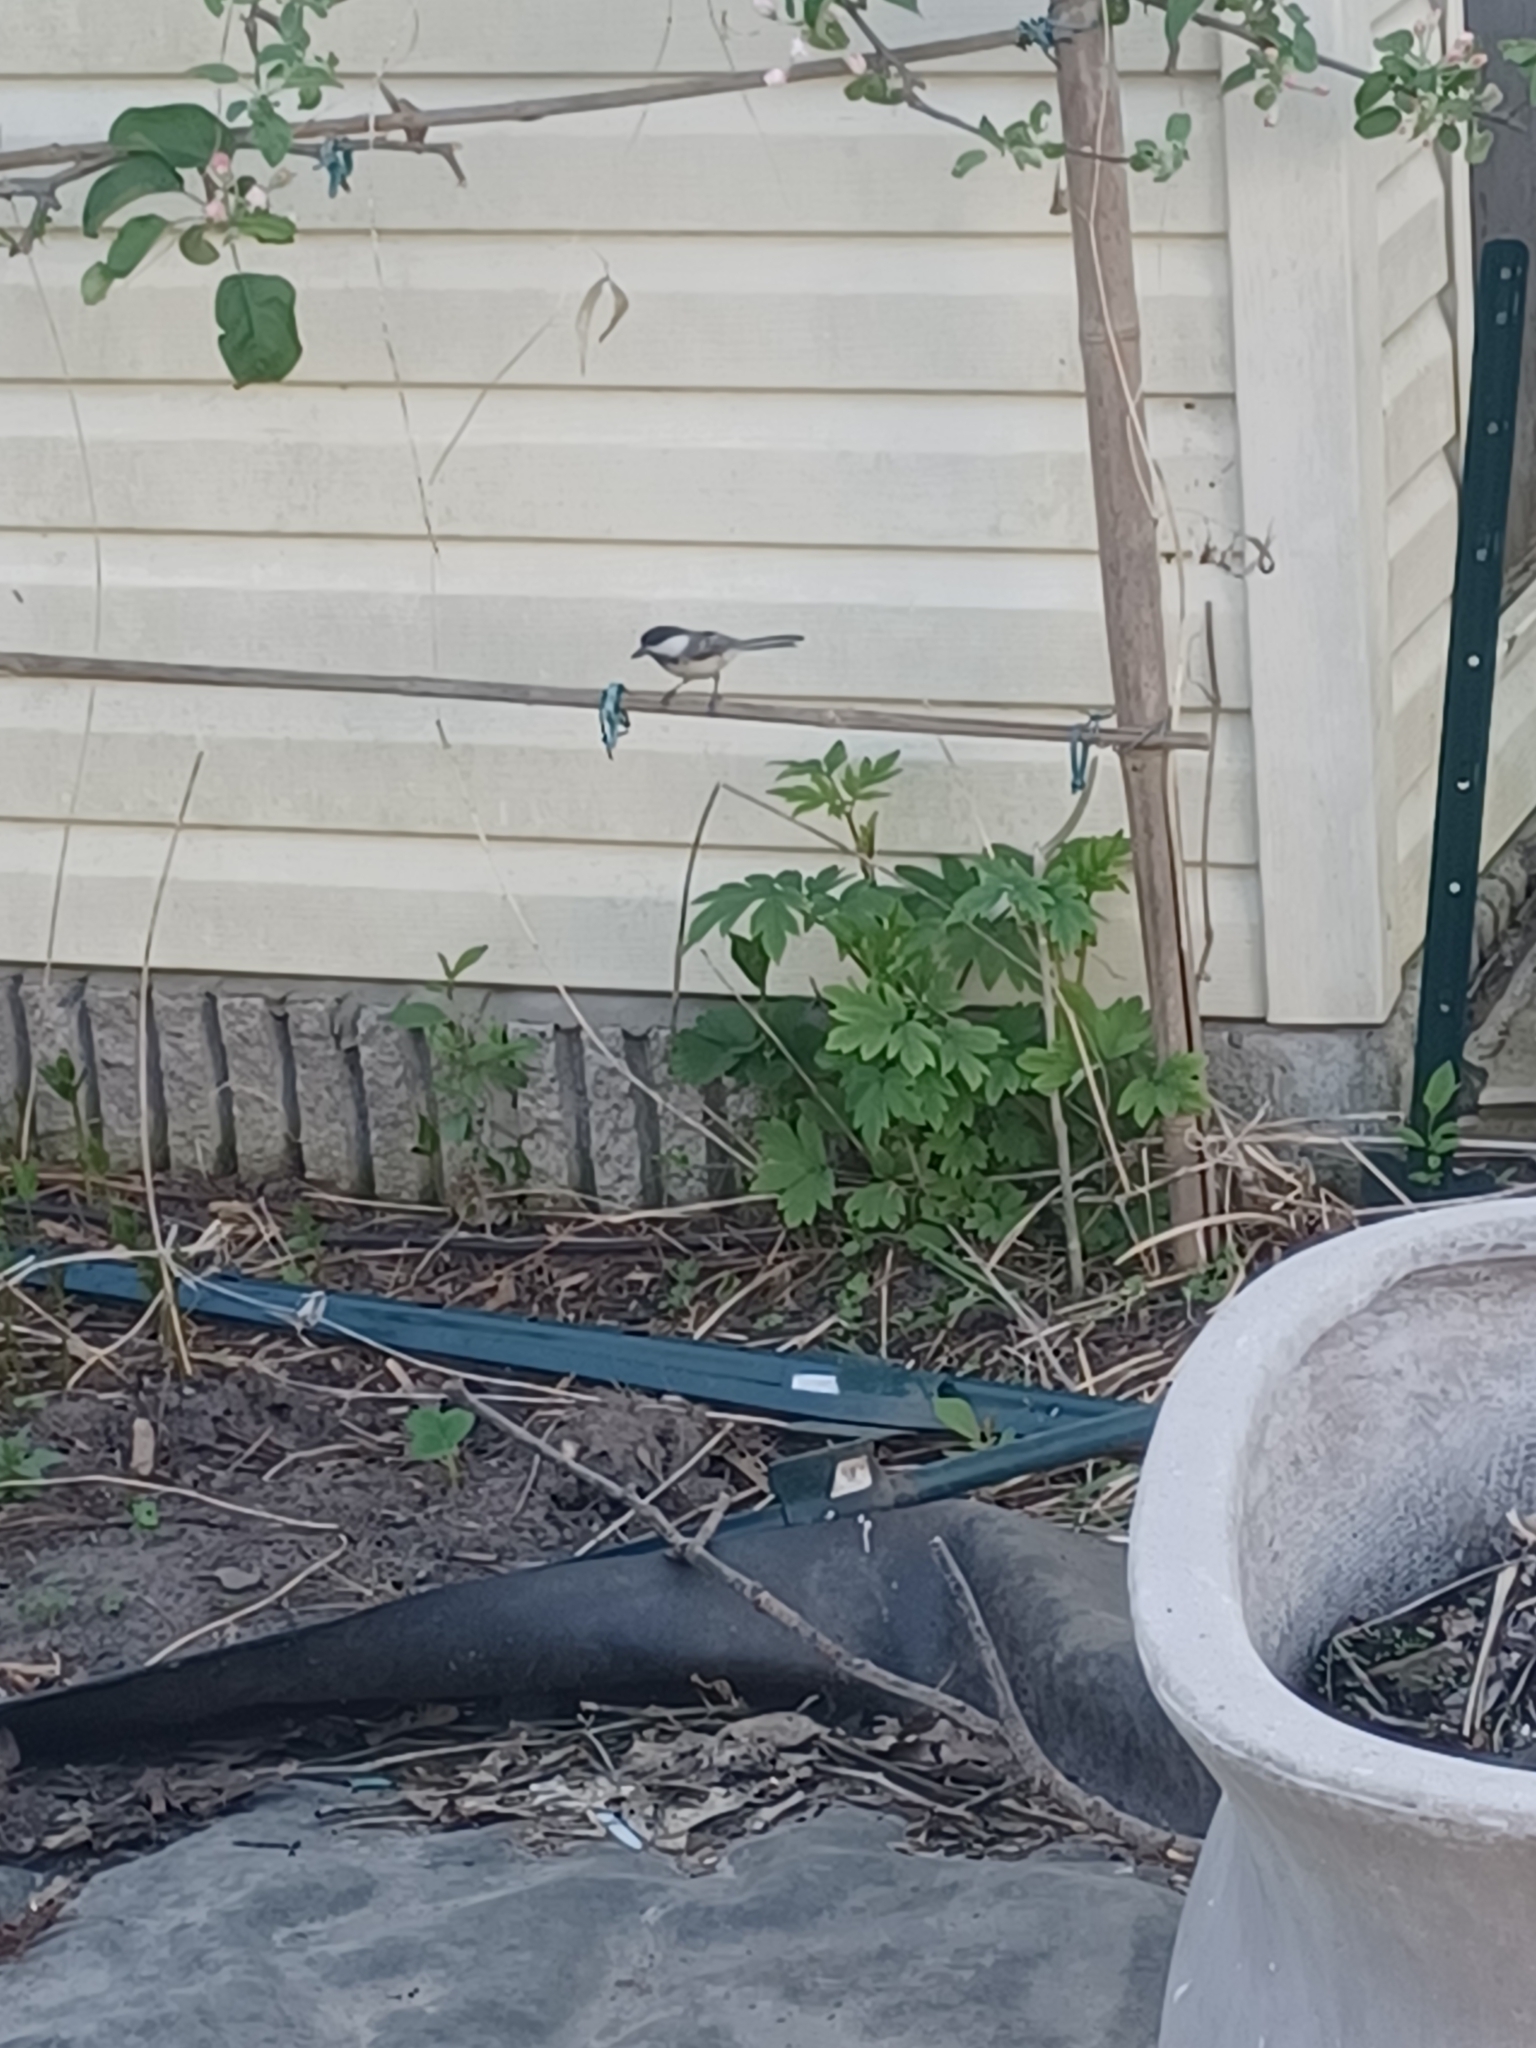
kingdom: Animalia
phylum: Chordata
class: Aves
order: Passeriformes
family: Paridae
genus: Poecile
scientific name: Poecile atricapillus
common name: Black-capped chickadee
